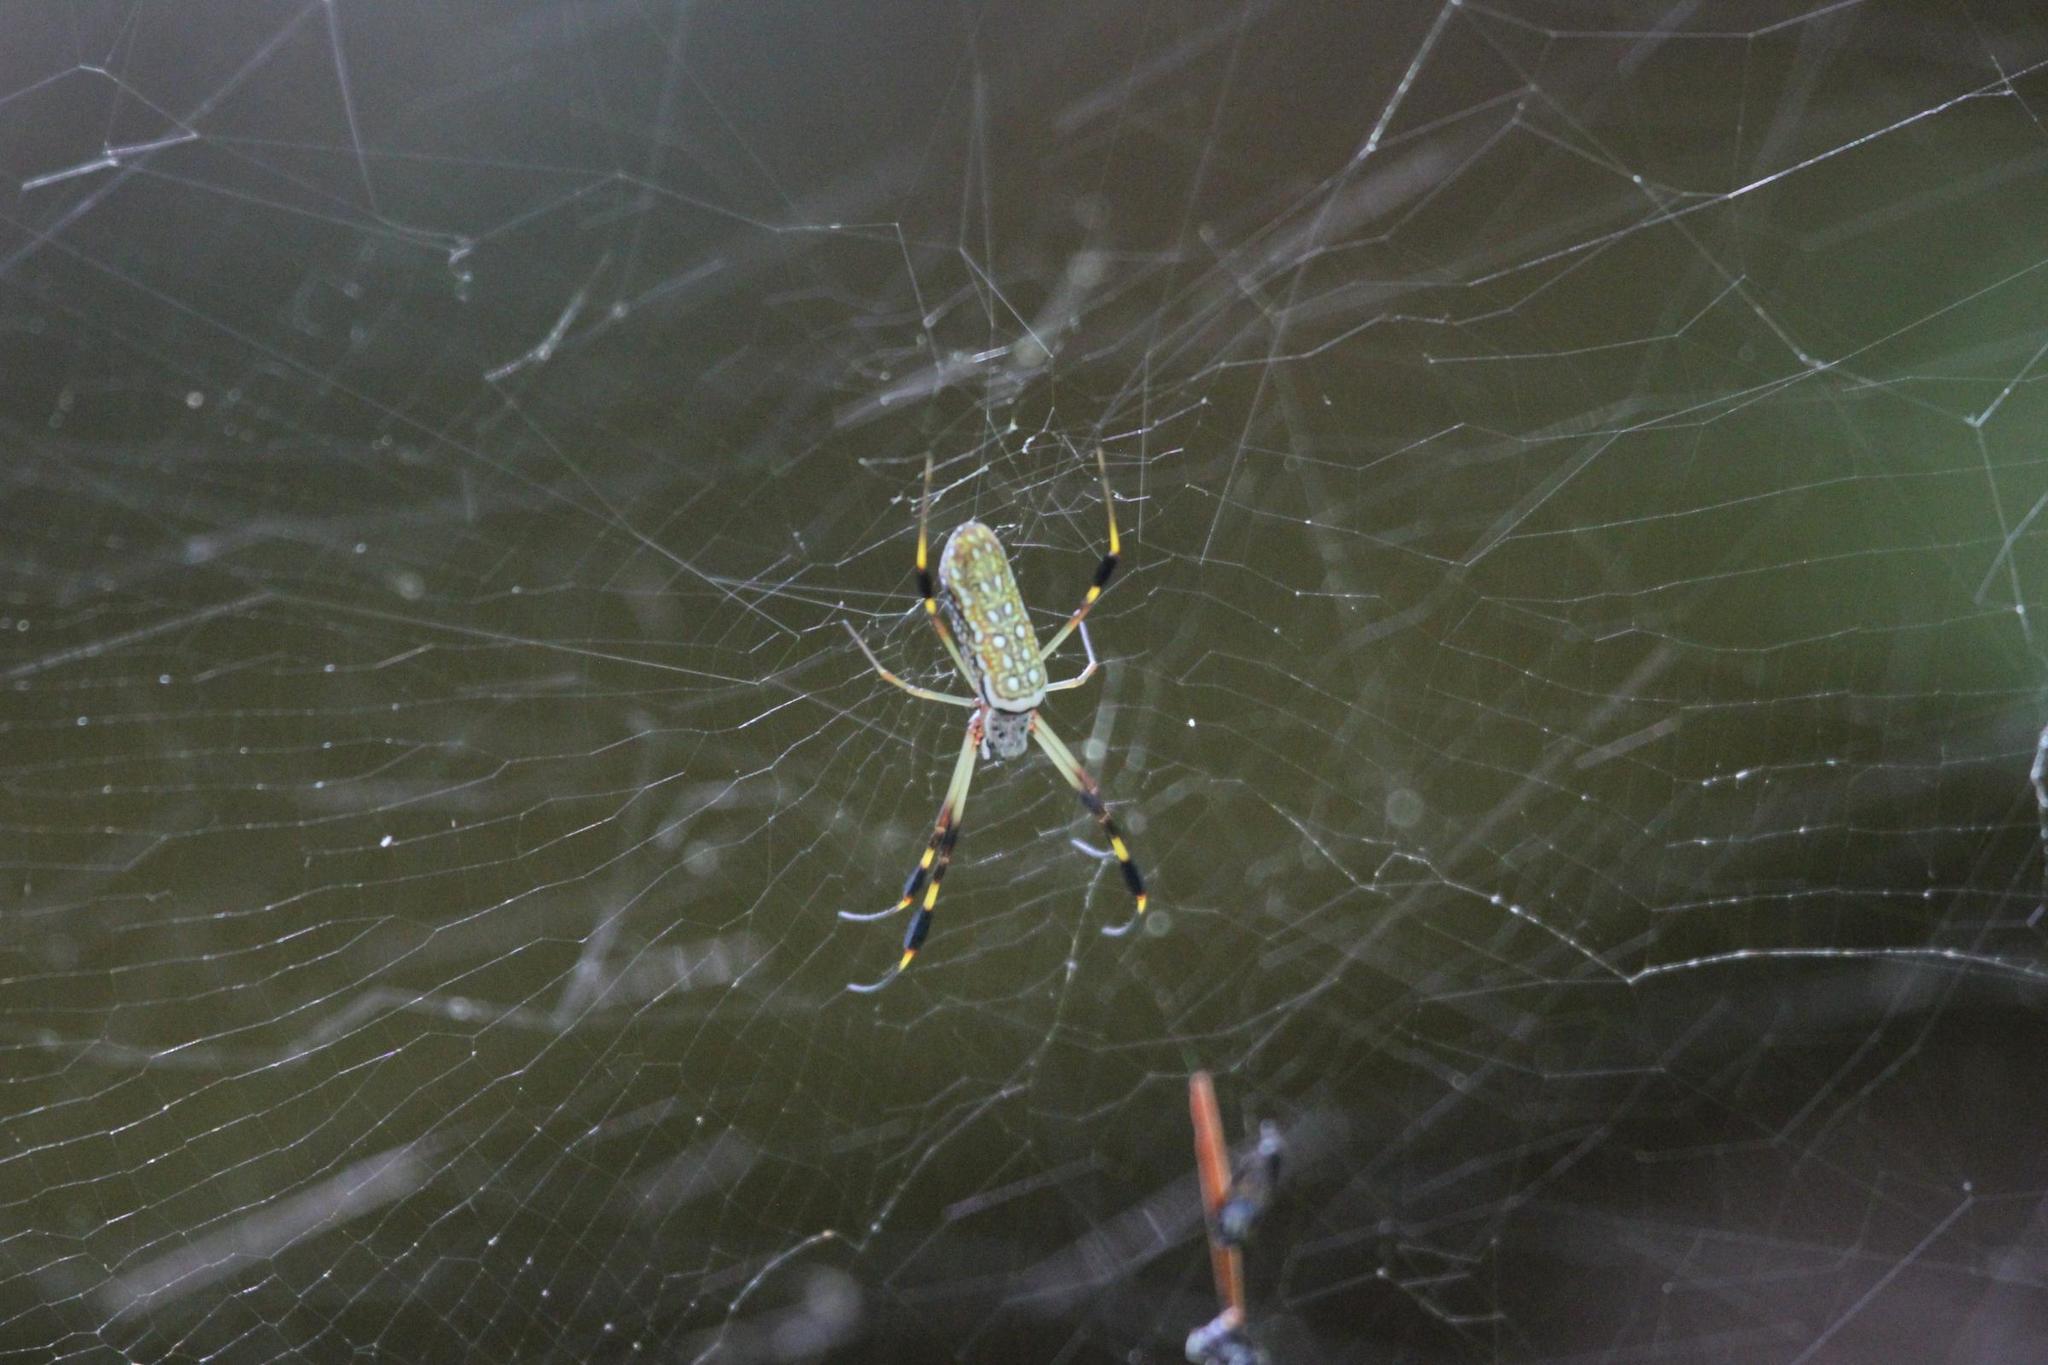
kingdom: Animalia
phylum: Arthropoda
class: Arachnida
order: Araneae
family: Araneidae
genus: Trichonephila
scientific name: Trichonephila clavipes
